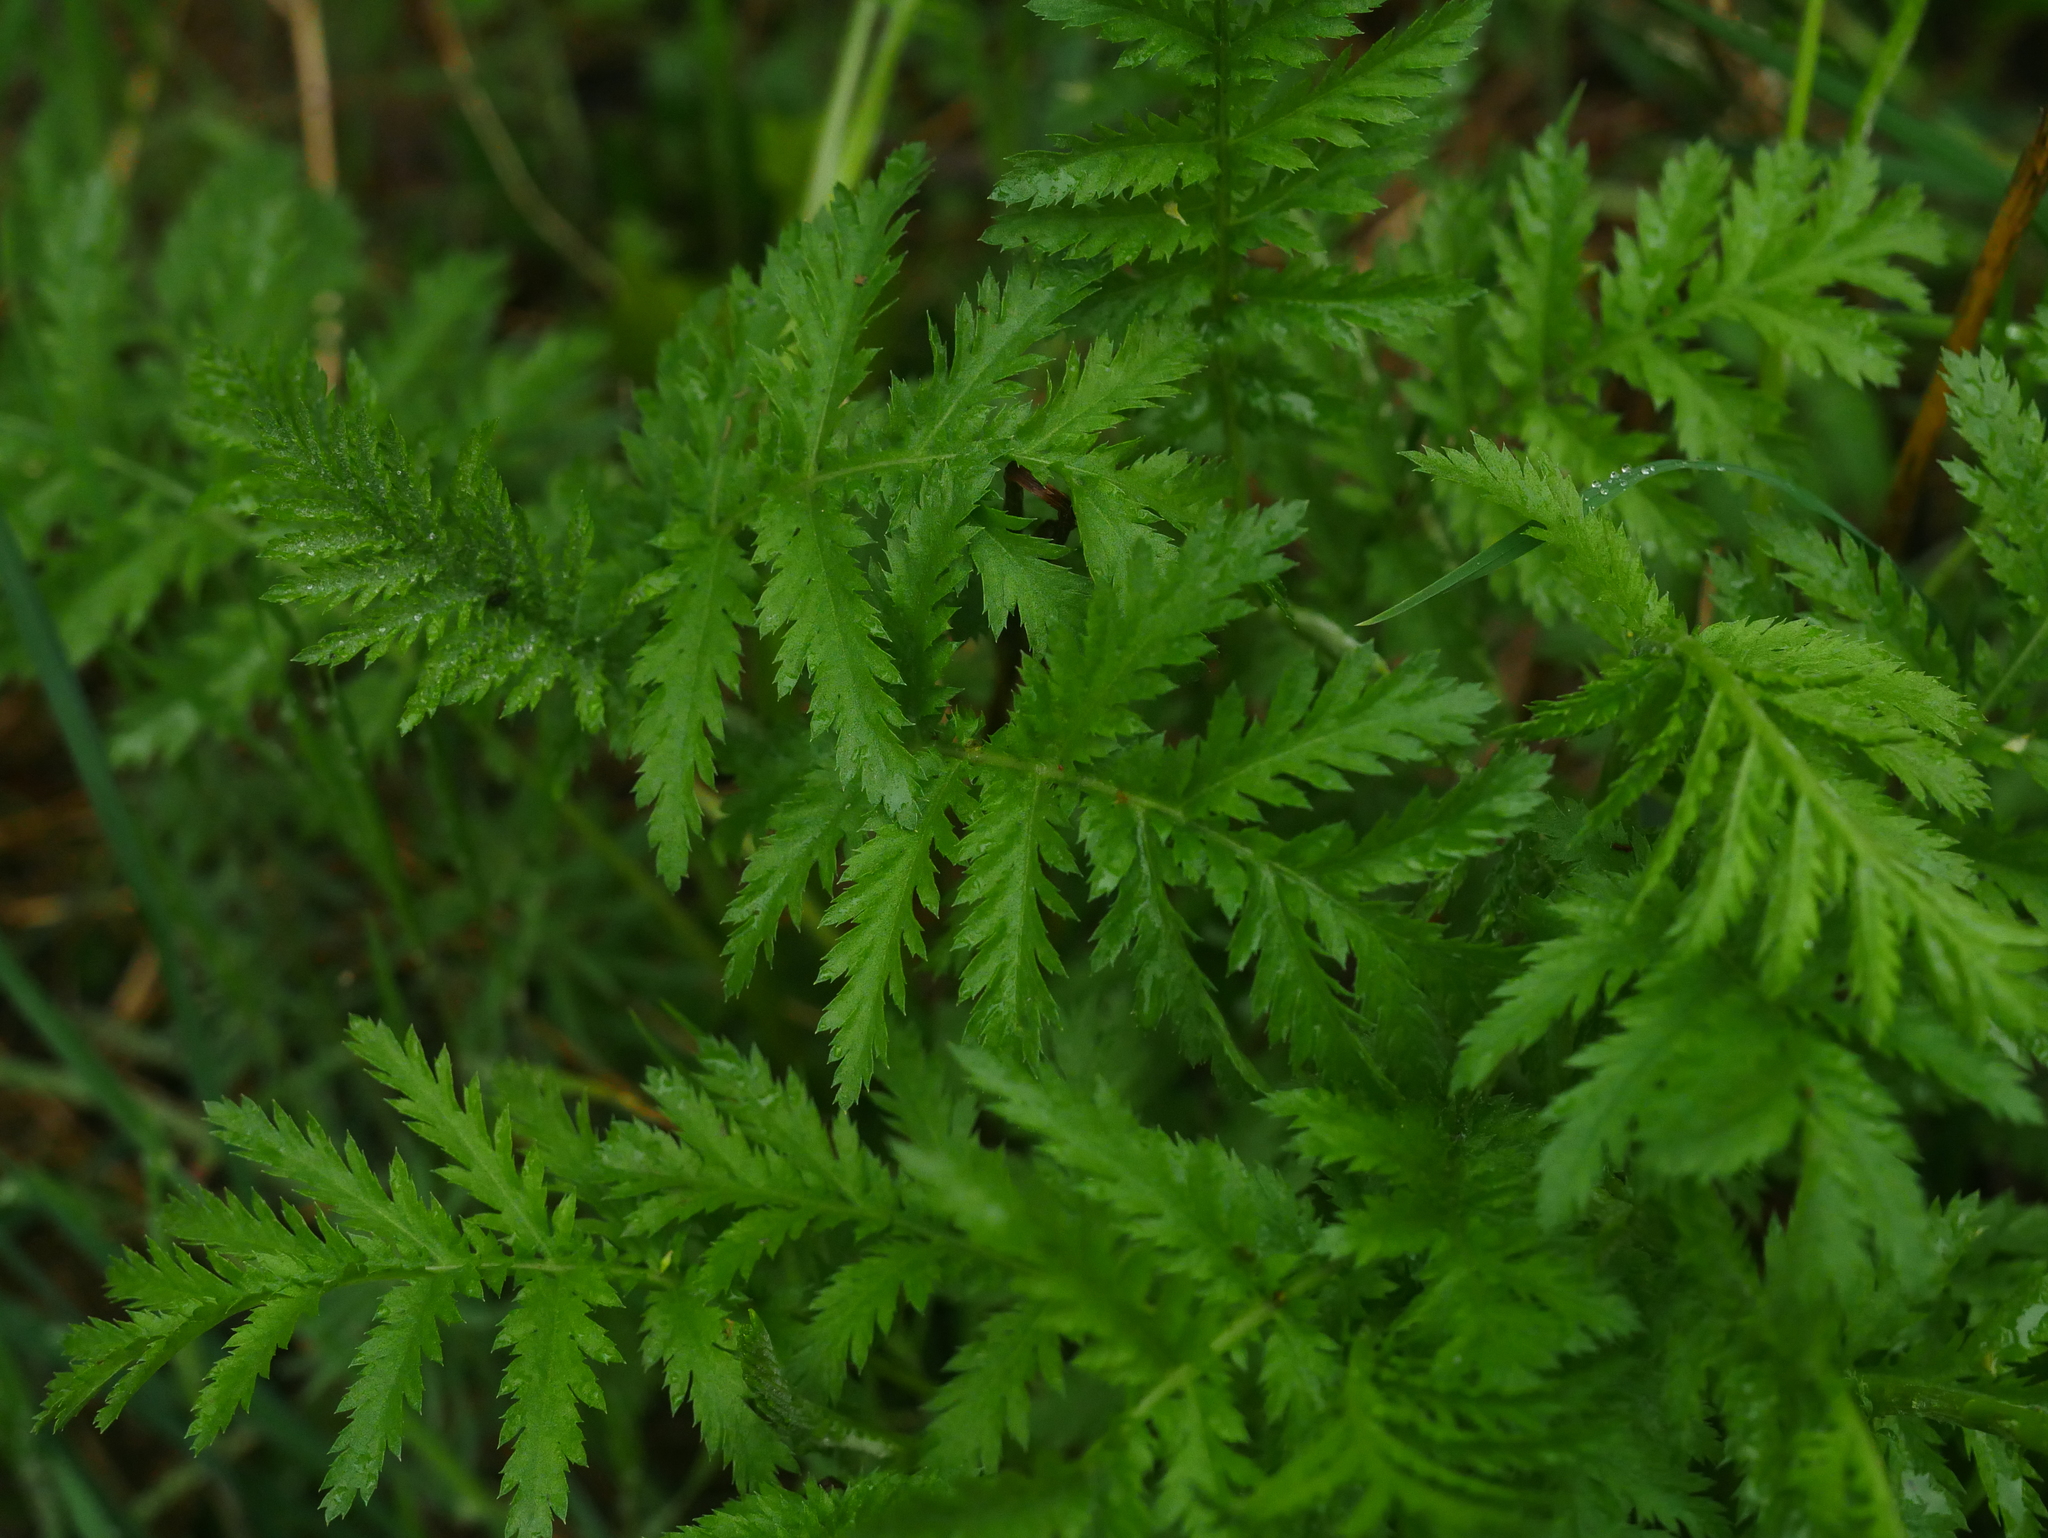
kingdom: Plantae
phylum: Tracheophyta
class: Magnoliopsida
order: Asterales
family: Asteraceae
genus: Tanacetum
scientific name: Tanacetum vulgare
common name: Common tansy
